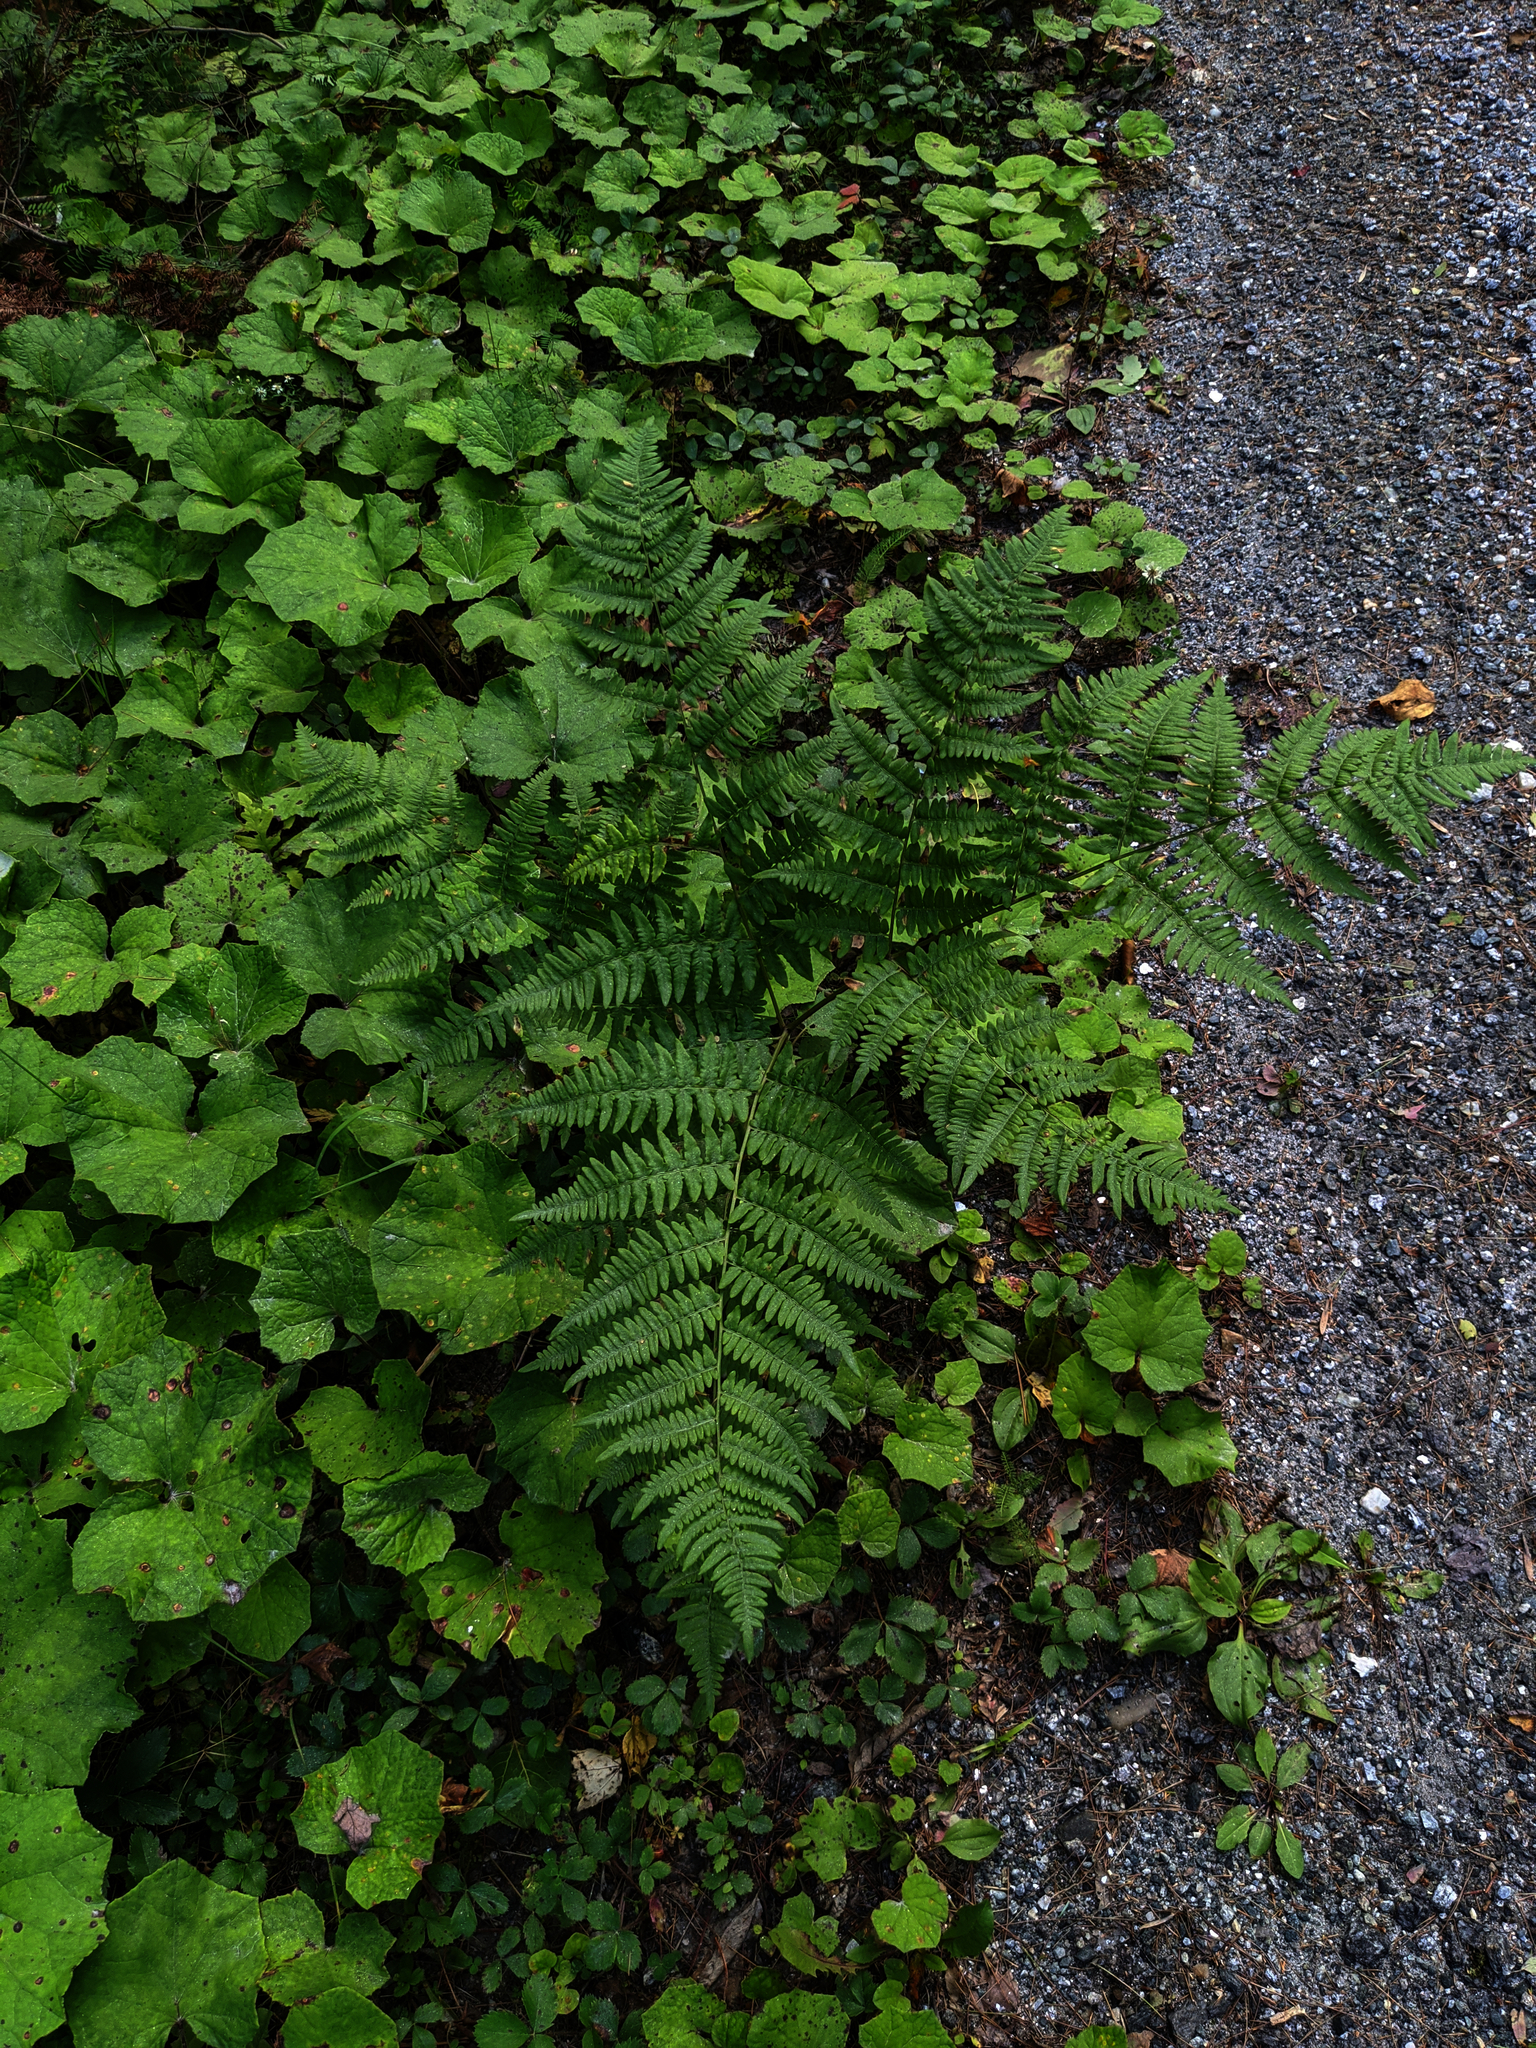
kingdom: Plantae
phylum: Tracheophyta
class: Polypodiopsida
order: Polypodiales
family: Dennstaedtiaceae
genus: Pteridium
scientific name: Pteridium aquilinum
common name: Bracken
